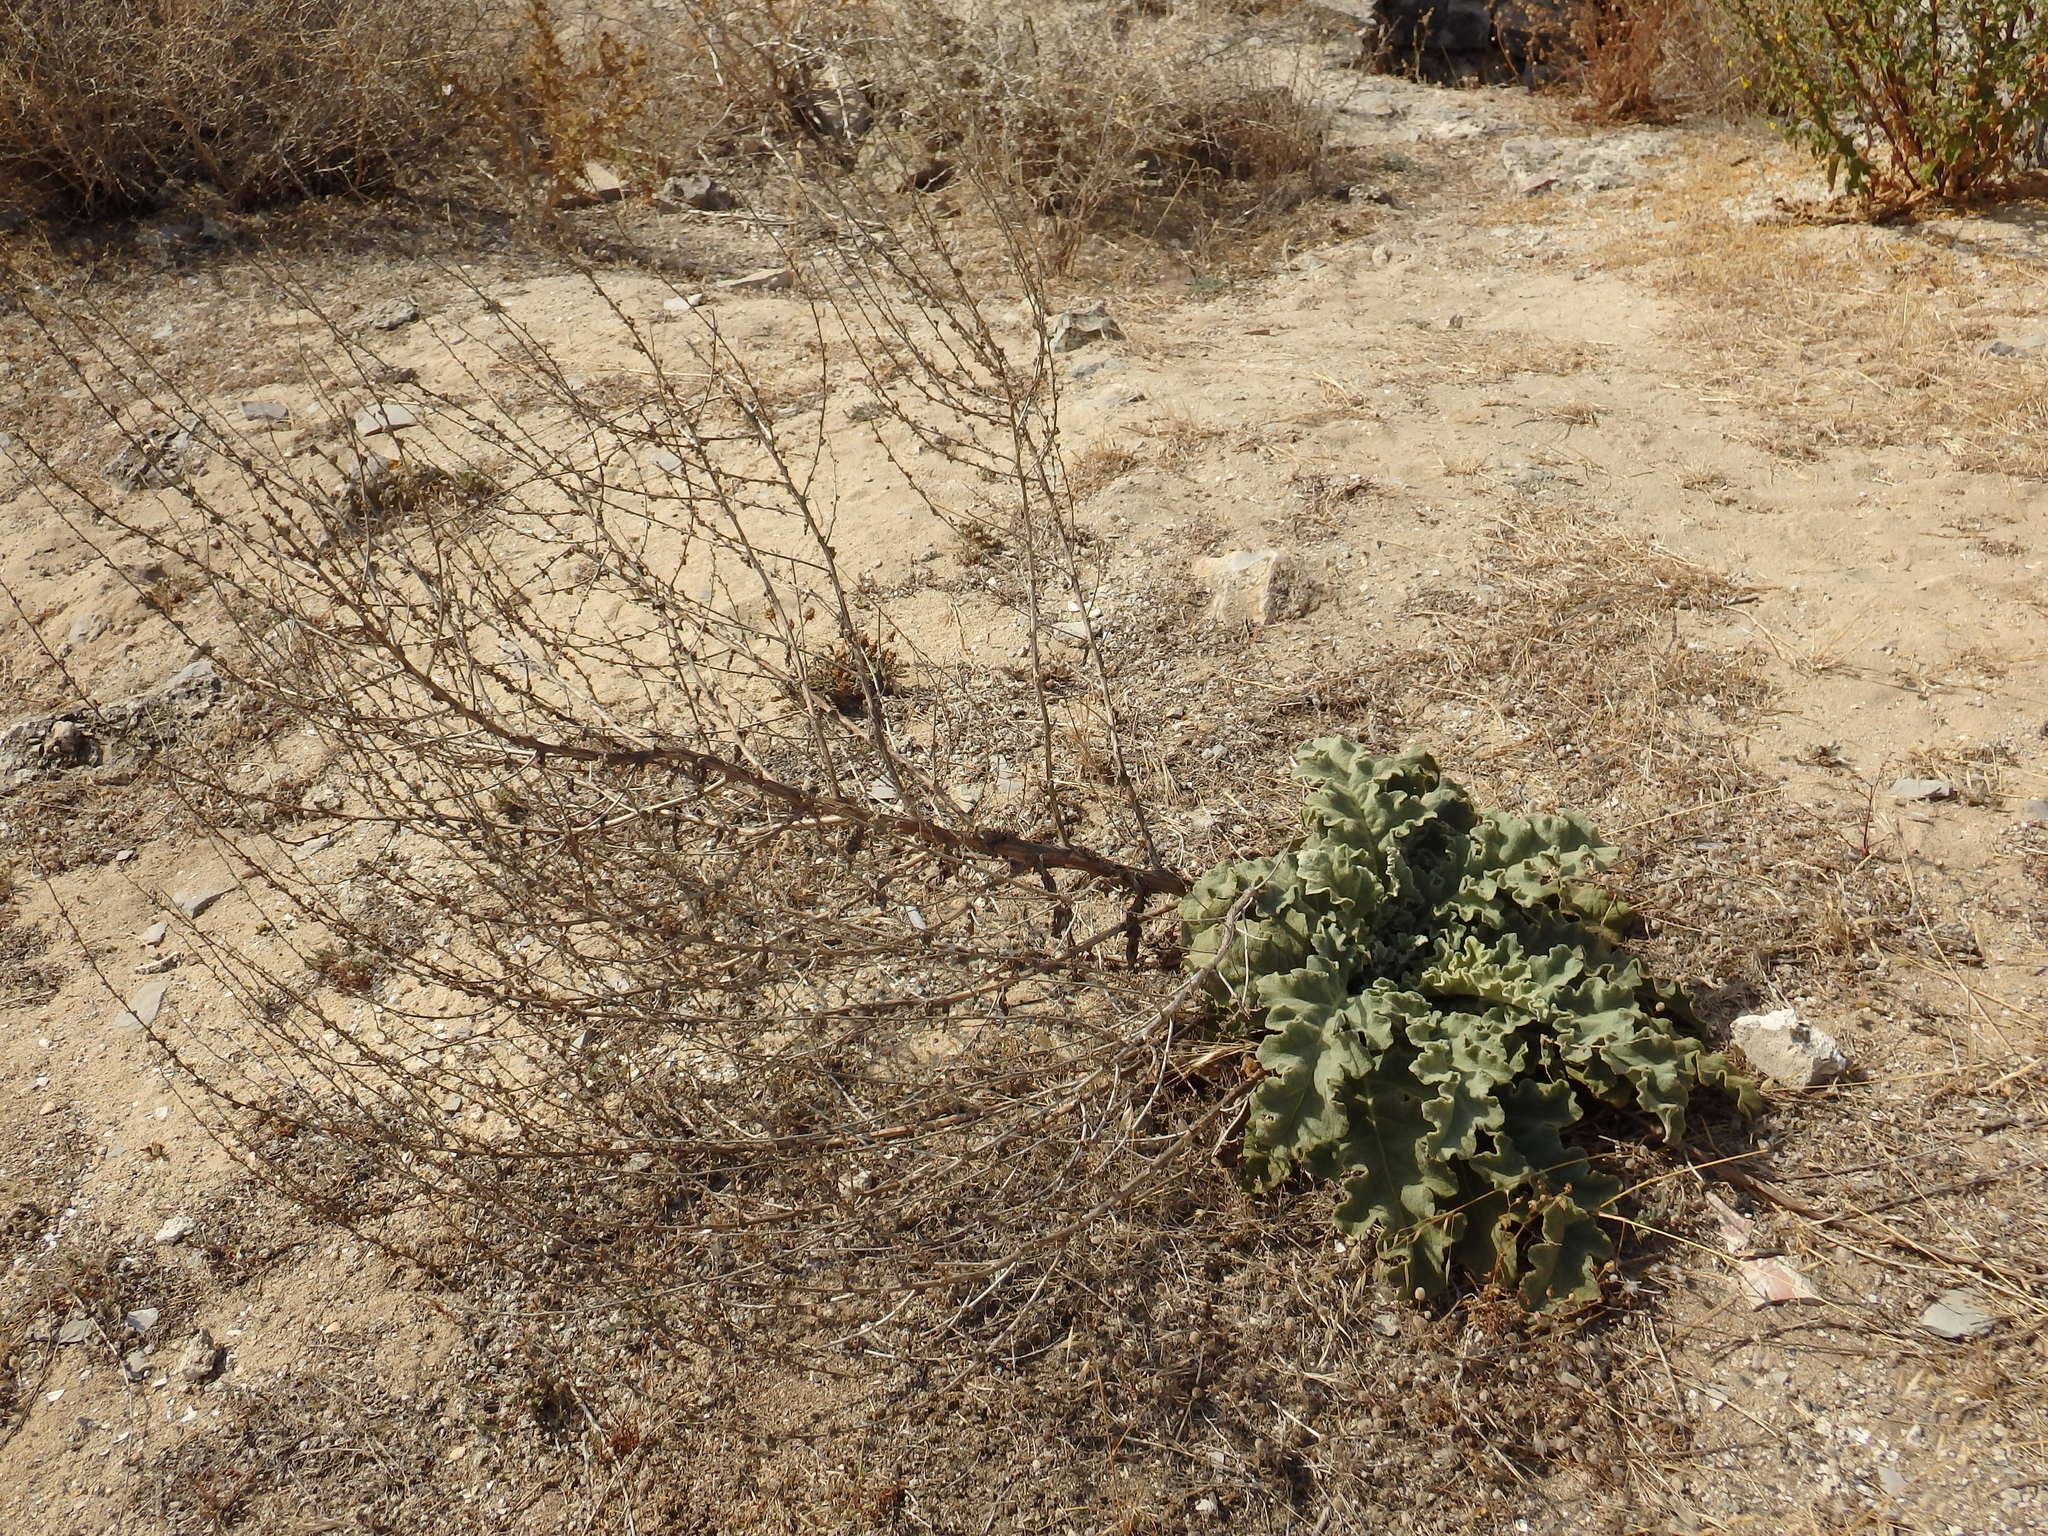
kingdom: Plantae
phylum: Tracheophyta
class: Magnoliopsida
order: Lamiales
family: Scrophulariaceae
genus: Verbascum
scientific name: Verbascum sinuatum
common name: Wavyleaf mullein
